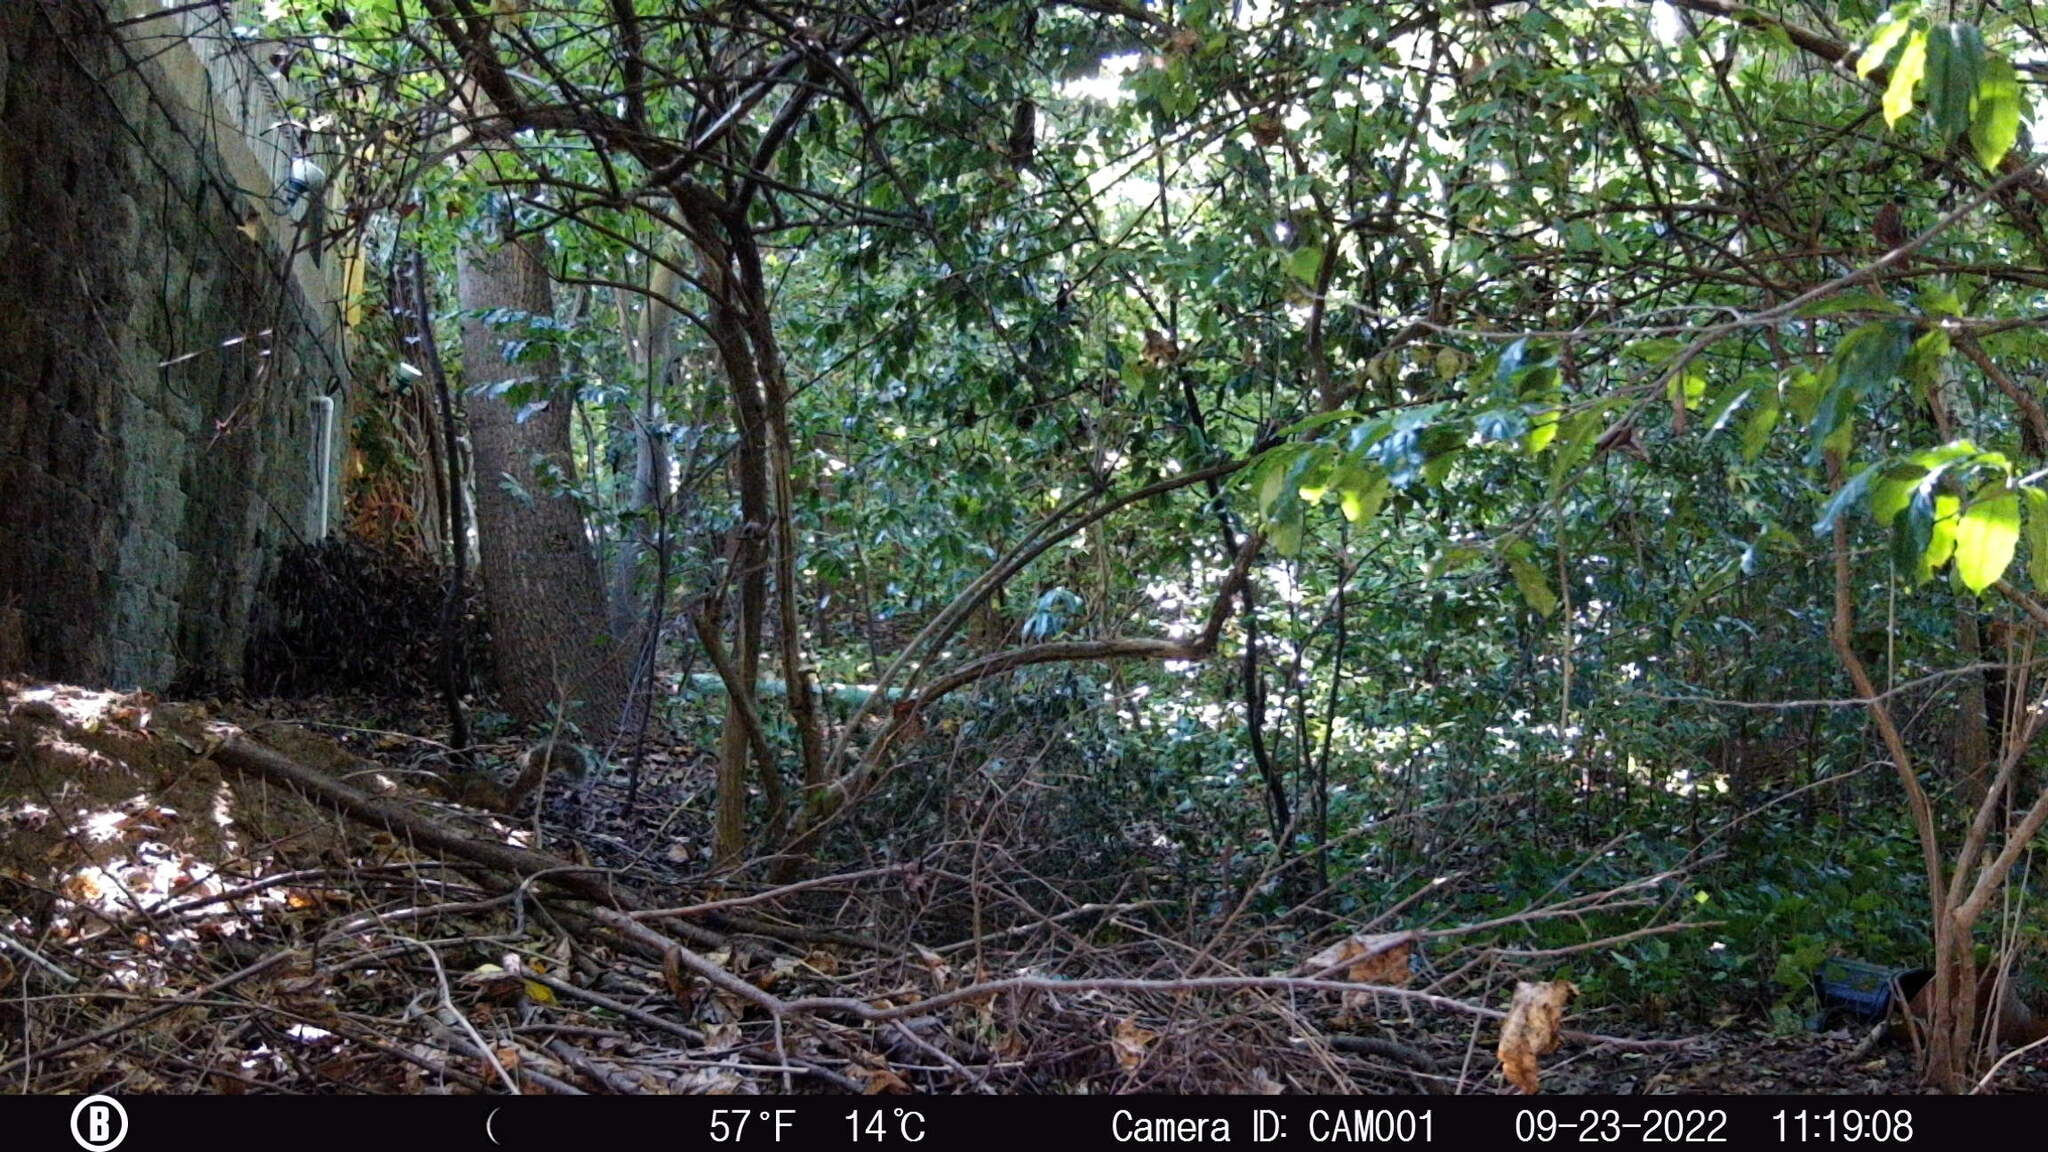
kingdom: Animalia
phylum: Chordata
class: Mammalia
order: Rodentia
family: Sciuridae
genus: Sciurus
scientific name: Sciurus carolinensis
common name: Eastern gray squirrel
